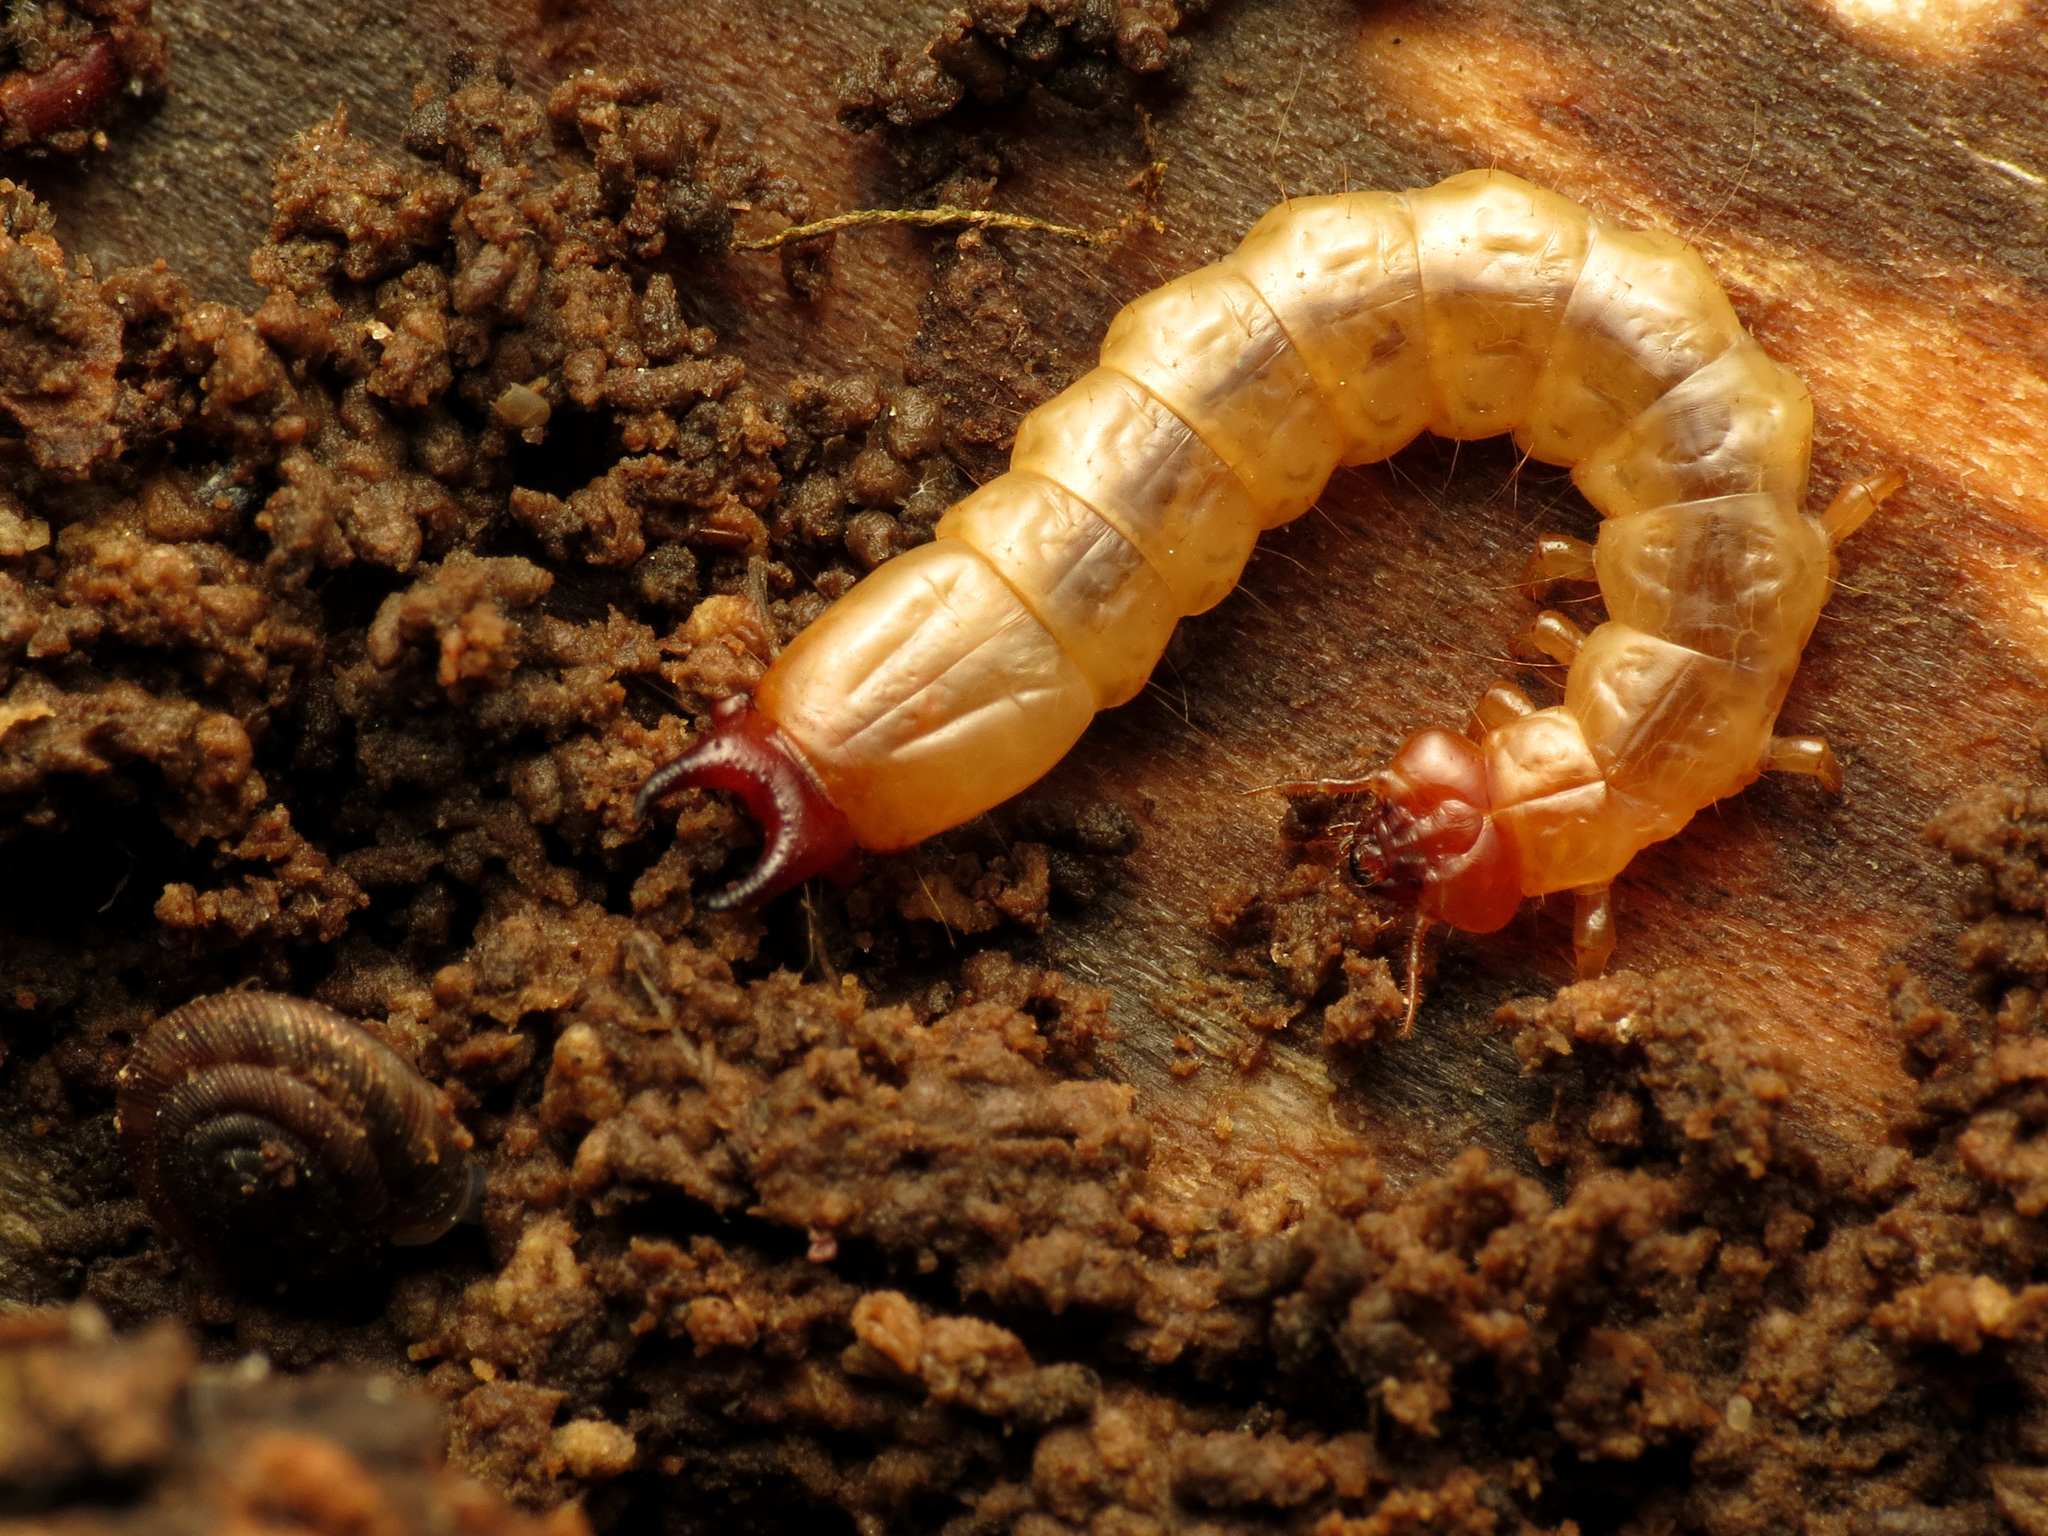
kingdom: Animalia
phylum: Arthropoda
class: Insecta
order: Coleoptera
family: Pyrochroidae
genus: Dendroides
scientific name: Dendroides canadensis
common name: Canada fire-colored beetle
